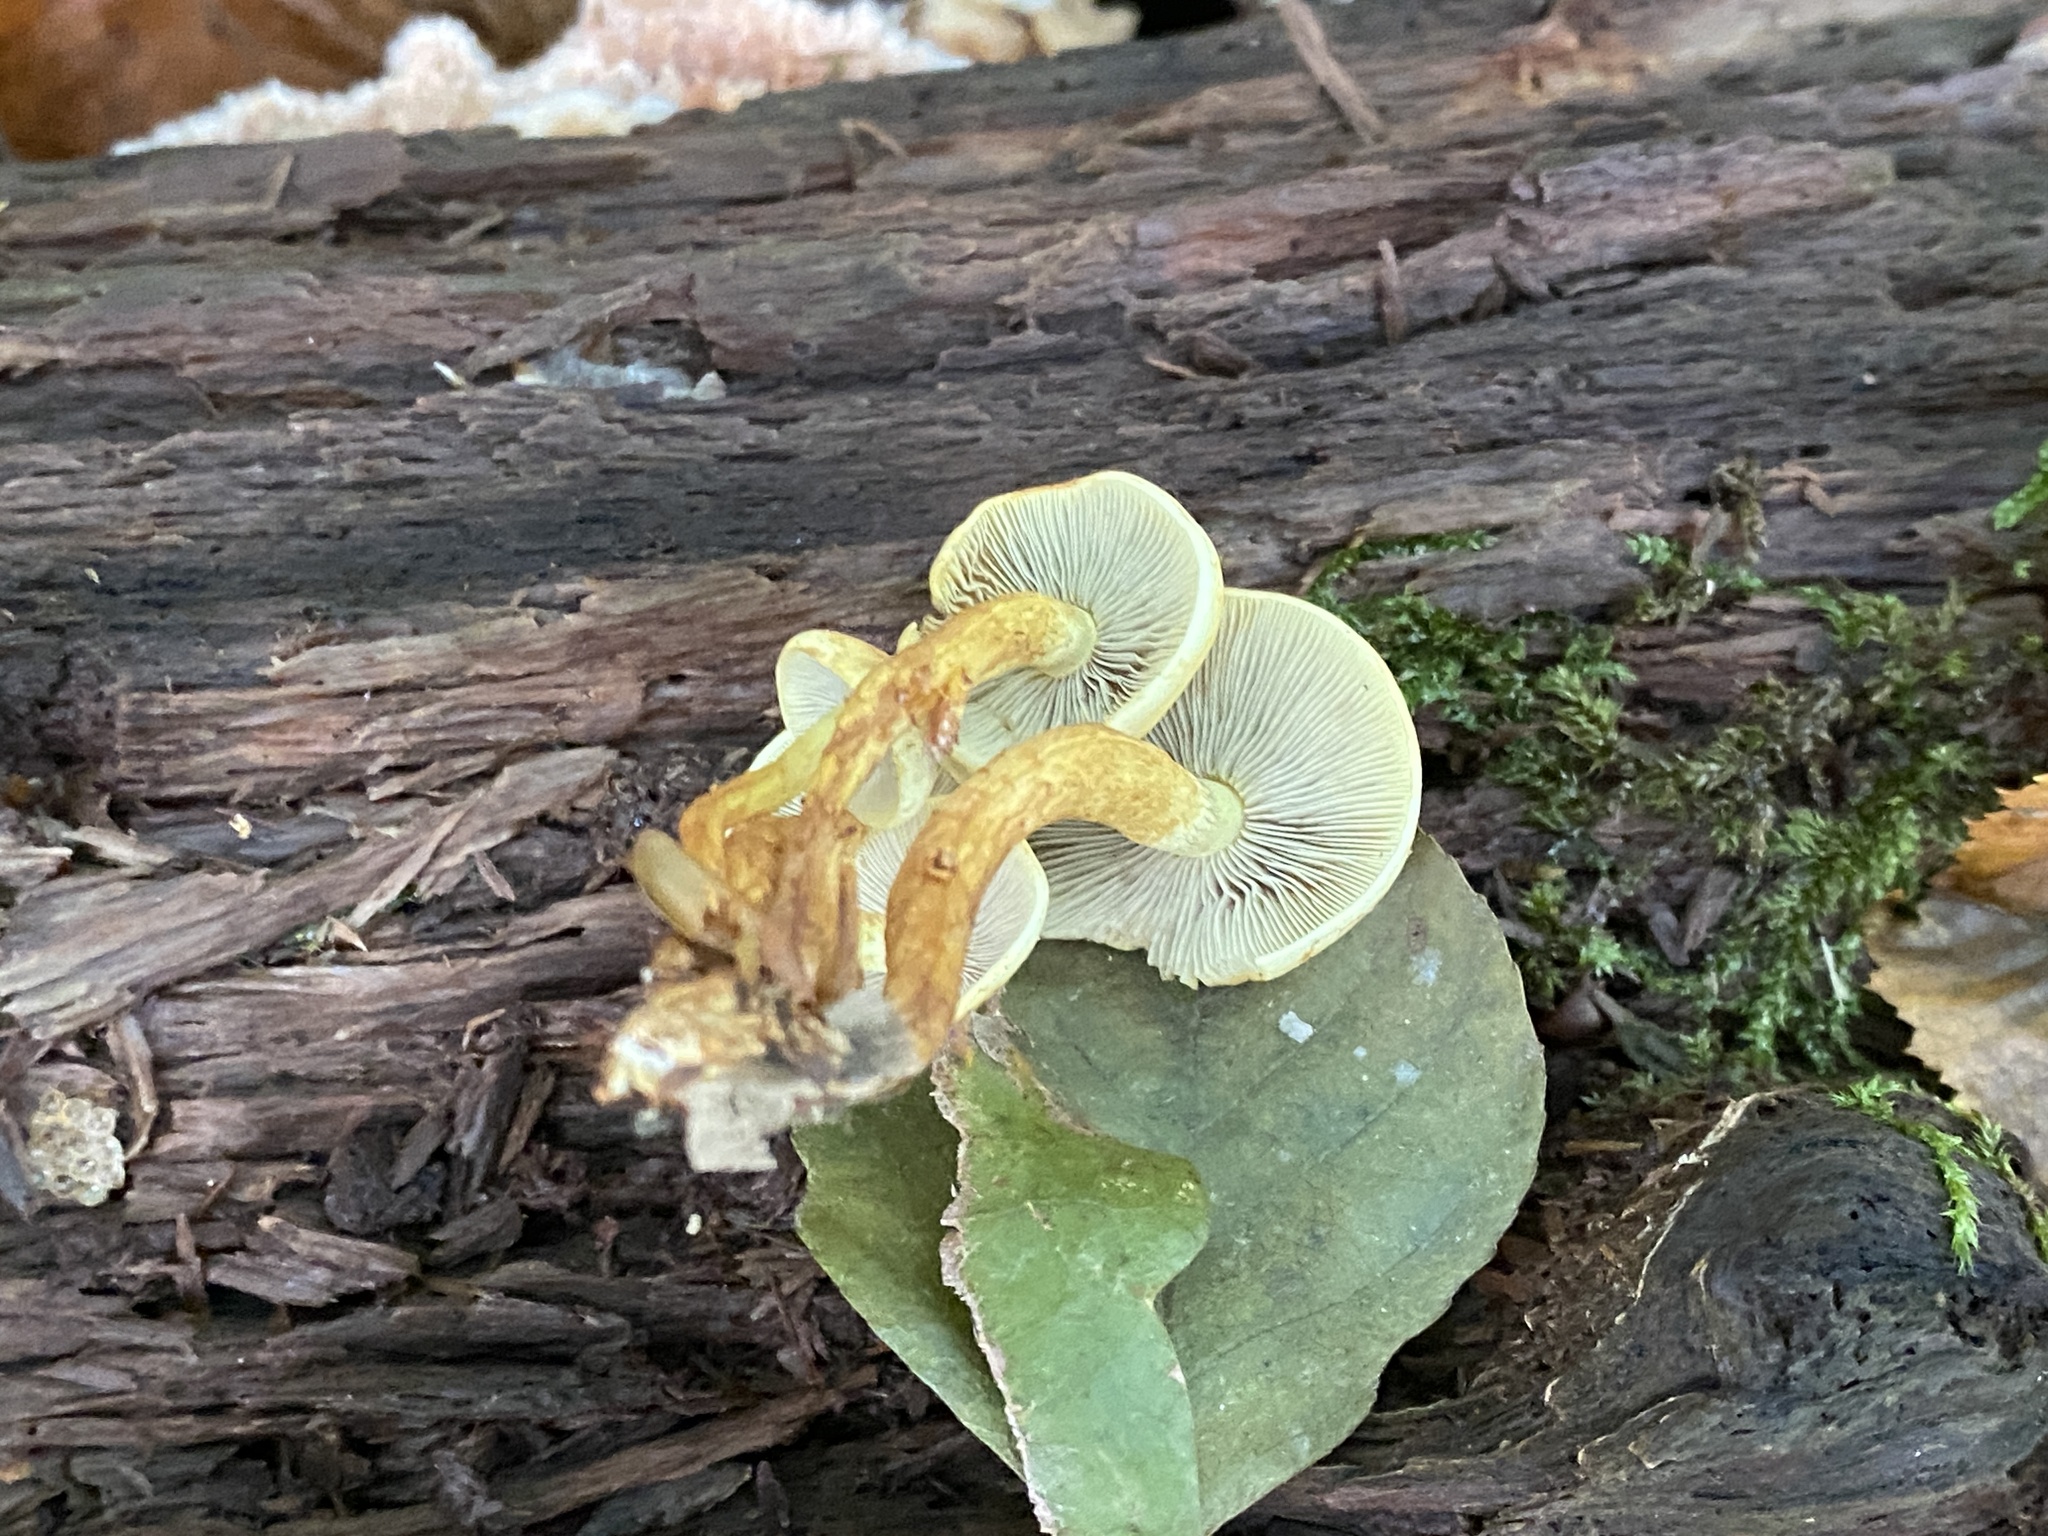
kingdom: Fungi
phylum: Basidiomycota
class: Agaricomycetes
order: Agaricales
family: Strophariaceae
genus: Hypholoma
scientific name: Hypholoma fasciculare
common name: Sulphur tuft
